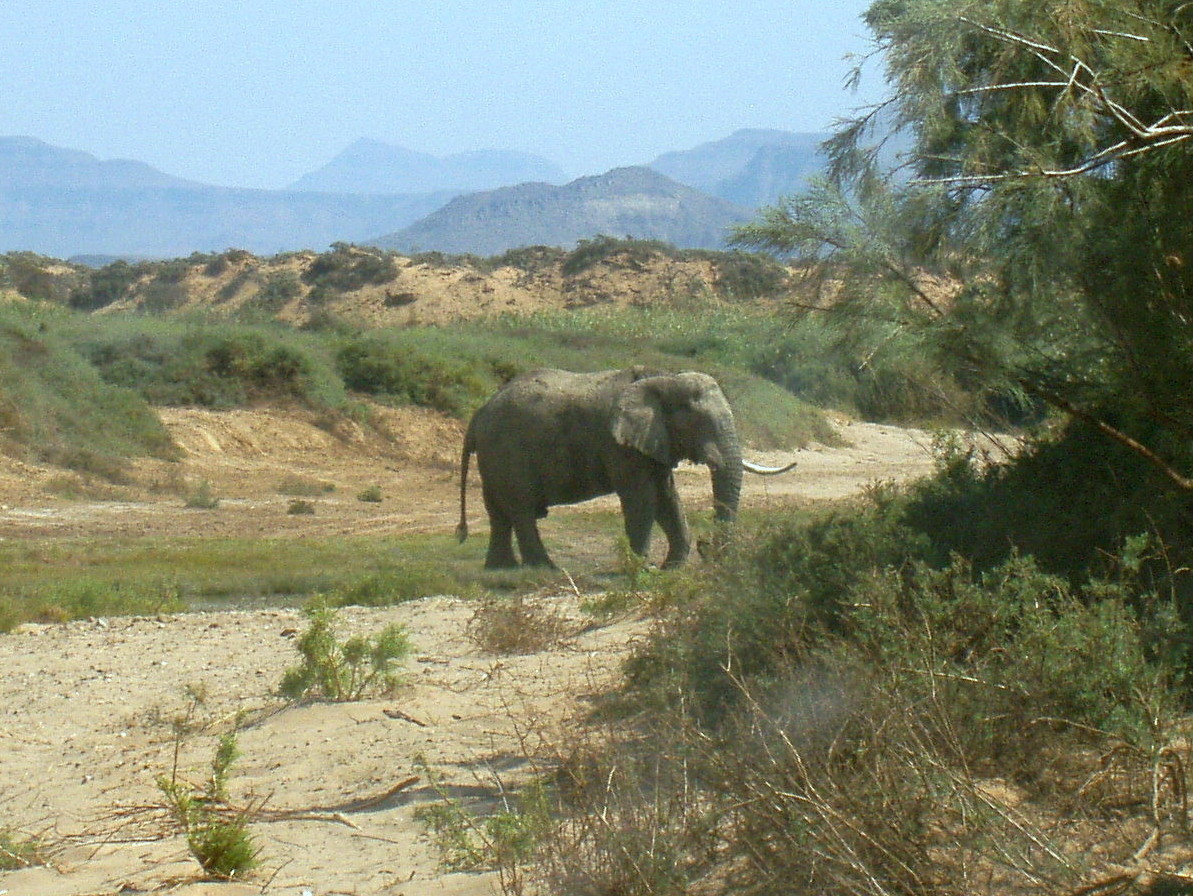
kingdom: Animalia
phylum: Chordata
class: Mammalia
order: Proboscidea
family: Elephantidae
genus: Loxodonta
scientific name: Loxodonta africana
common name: African elephant
